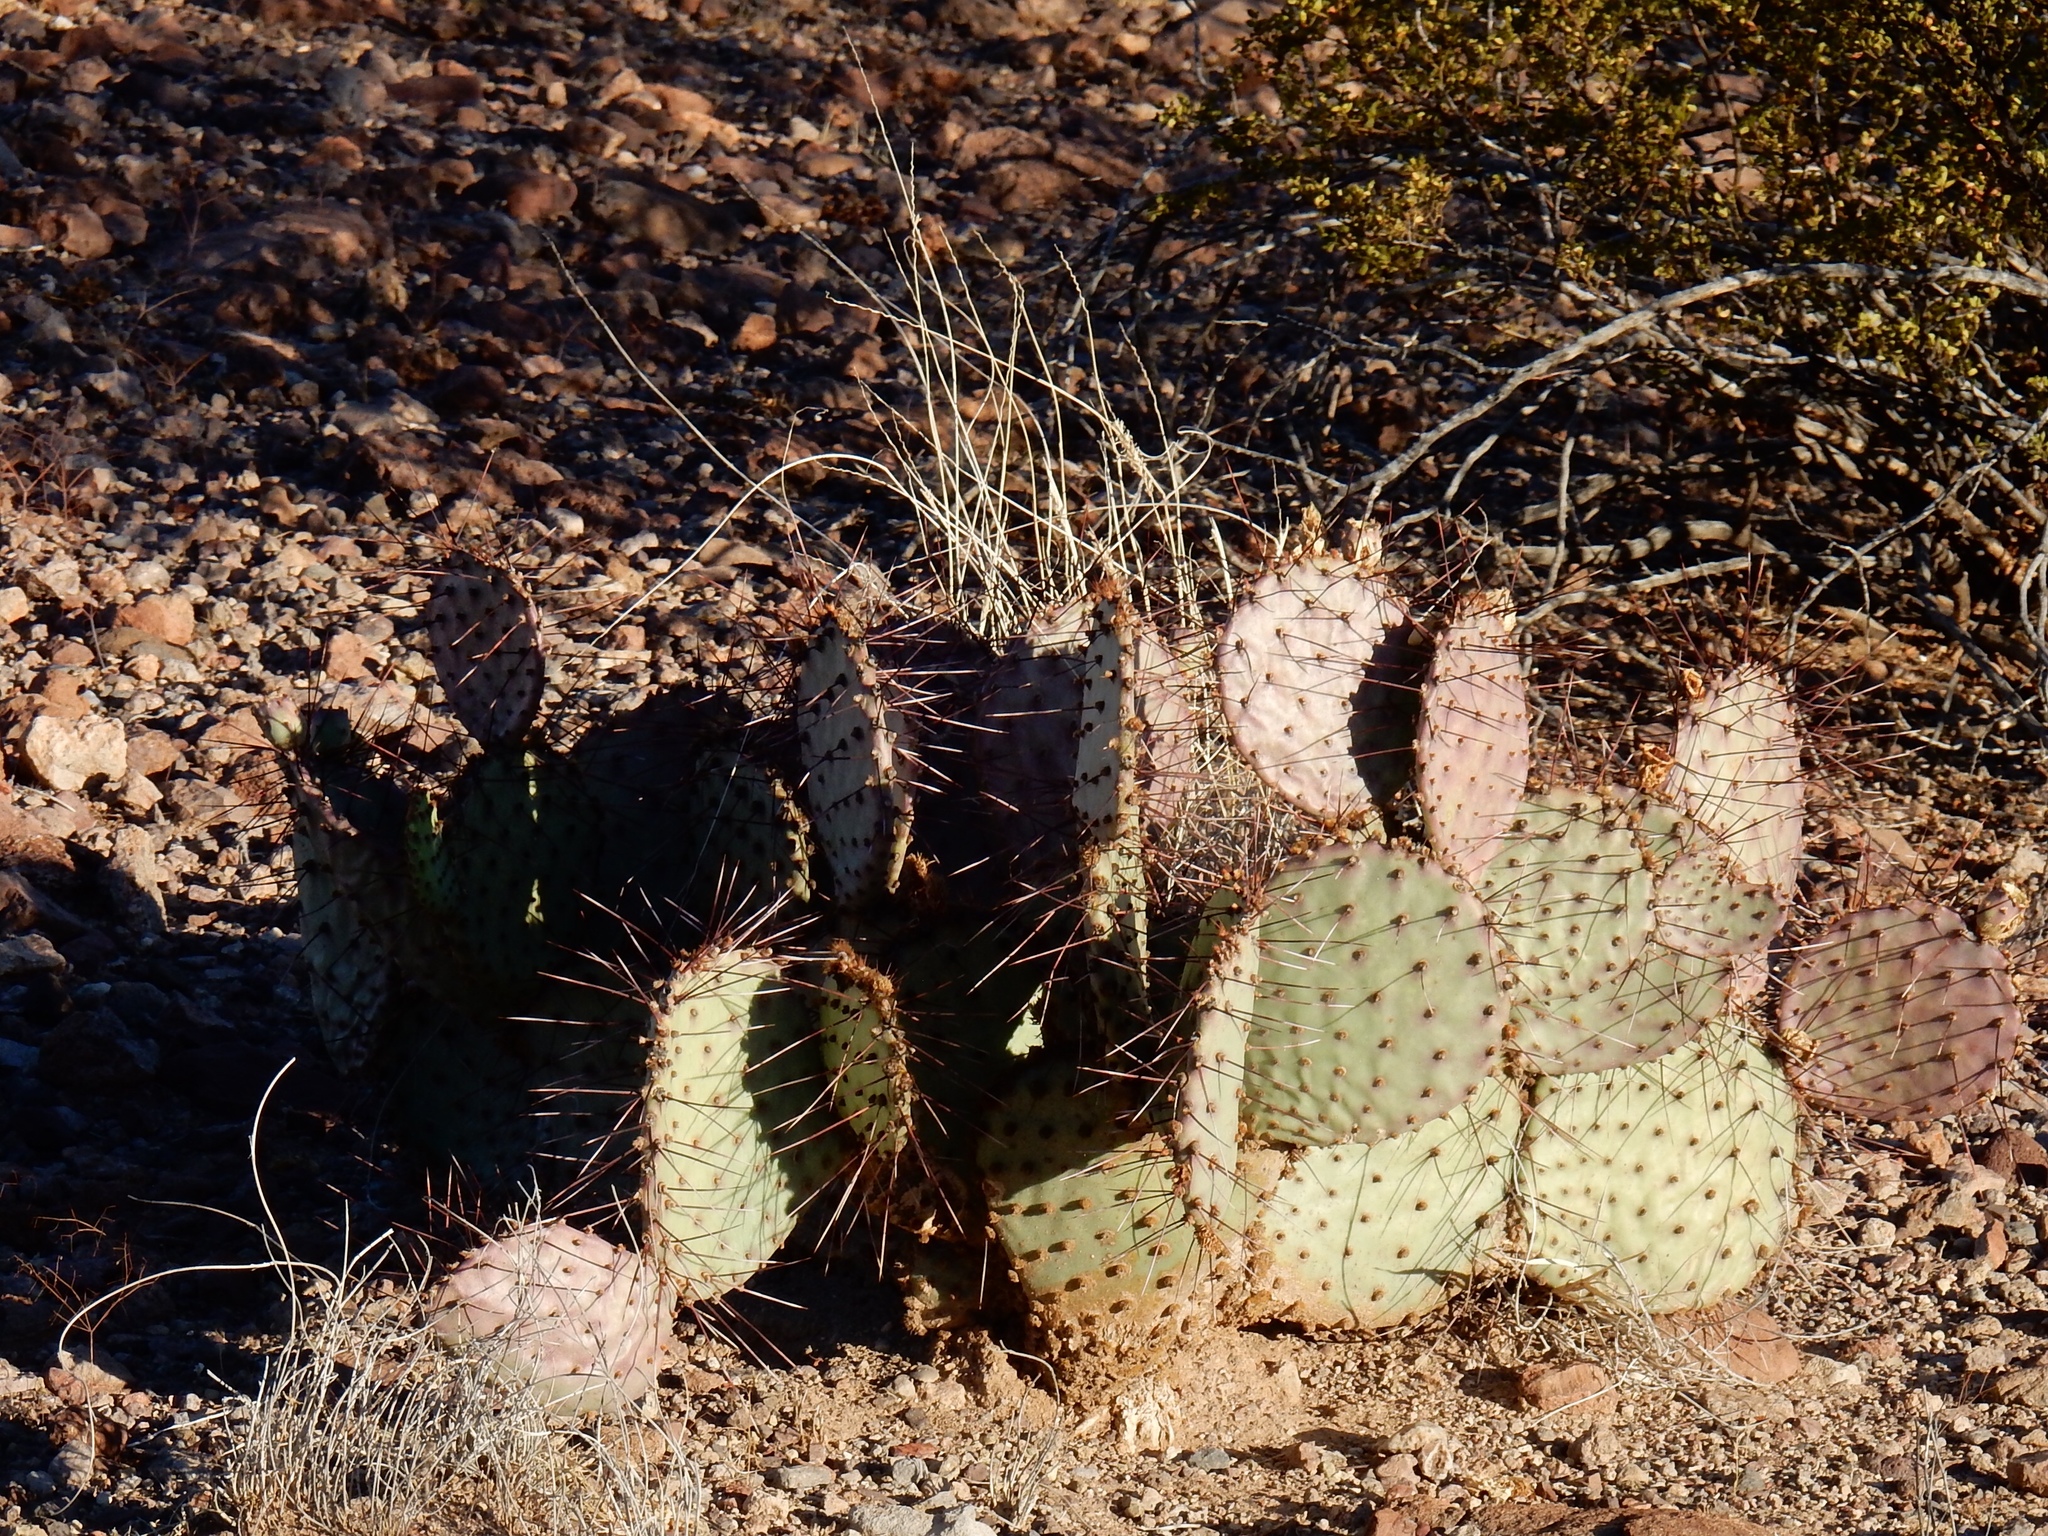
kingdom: Plantae
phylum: Tracheophyta
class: Magnoliopsida
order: Caryophyllales
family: Cactaceae
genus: Opuntia
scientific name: Opuntia macrocentra
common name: Purple prickly-pear
